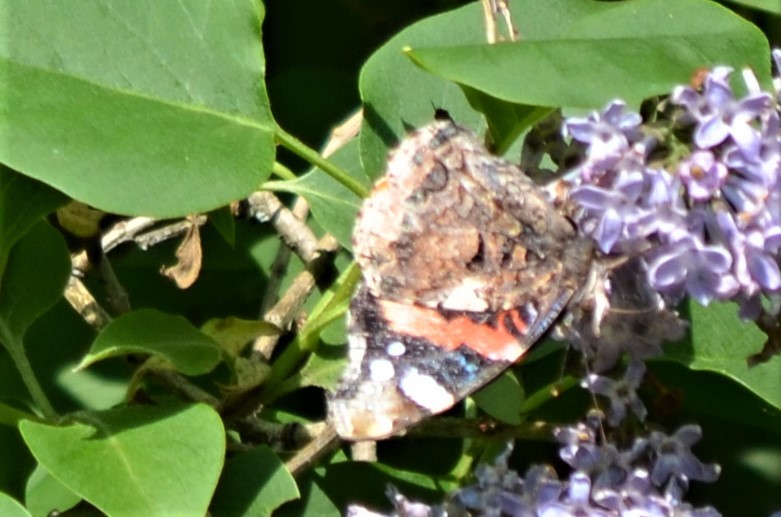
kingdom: Animalia
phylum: Arthropoda
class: Insecta
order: Lepidoptera
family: Nymphalidae
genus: Vanessa
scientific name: Vanessa atalanta
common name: Red admiral
